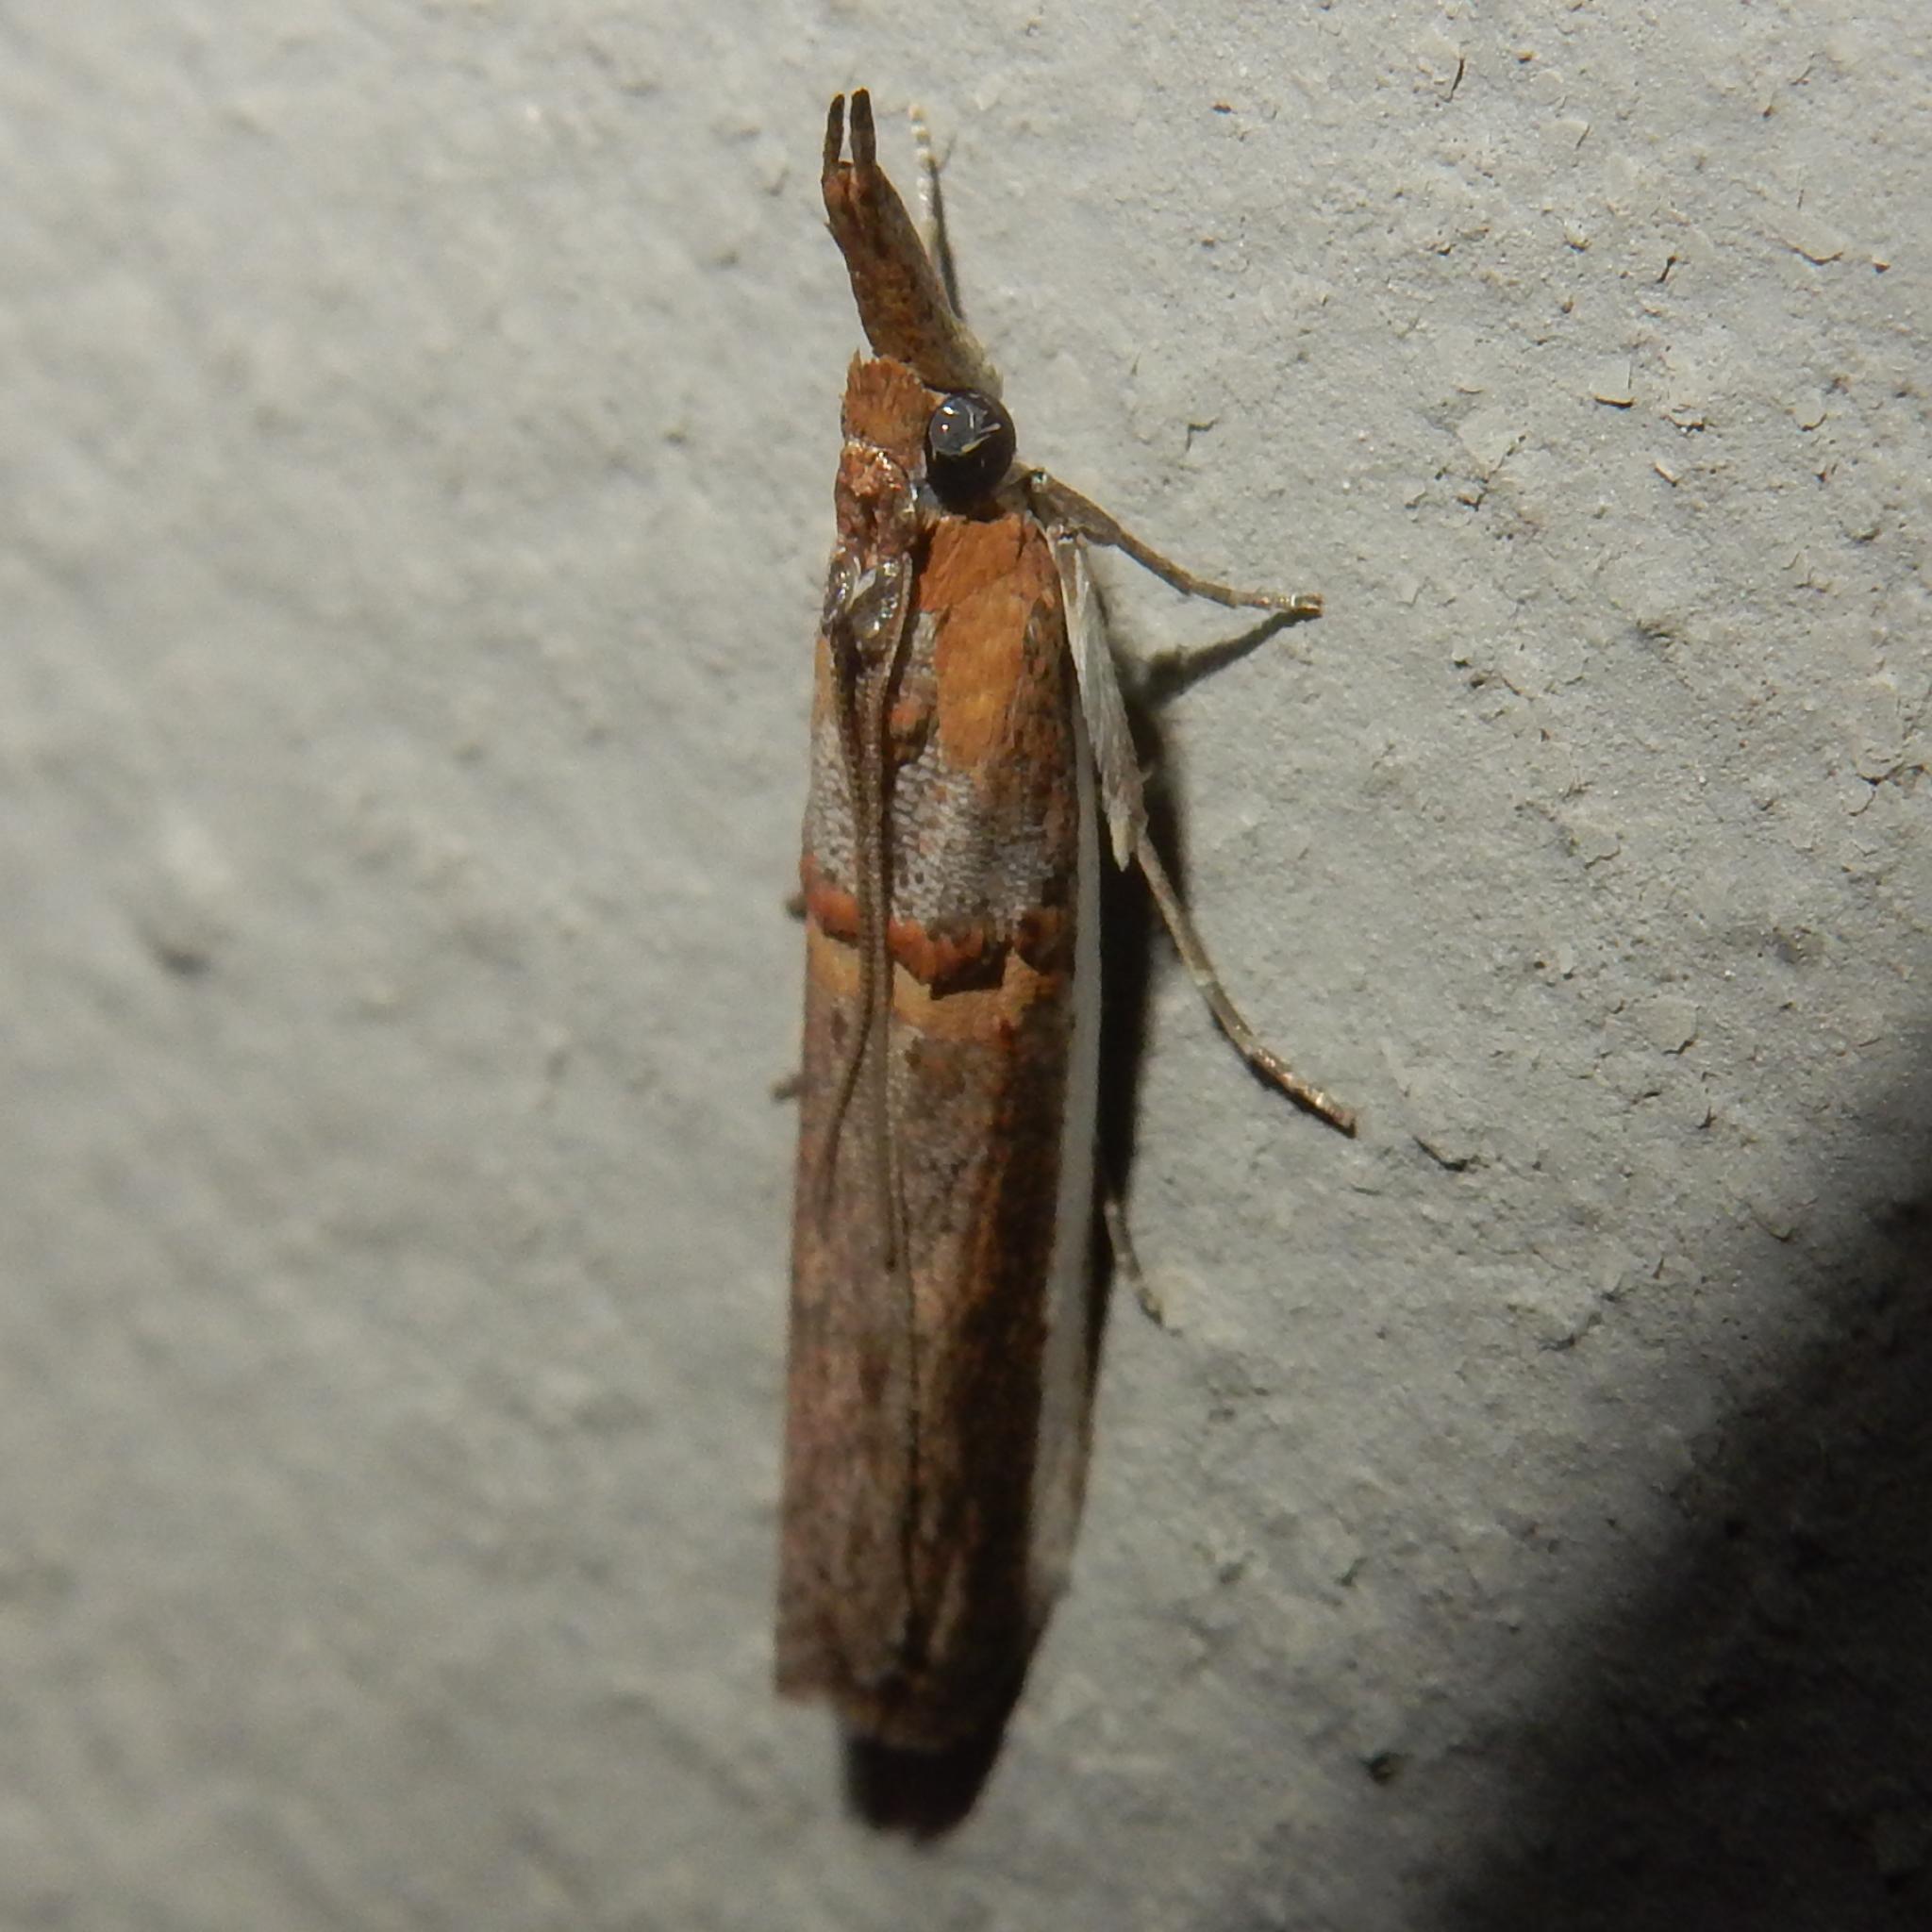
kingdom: Animalia
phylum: Arthropoda
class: Insecta
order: Lepidoptera
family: Pyralidae
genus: Etiella
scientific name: Etiella zinckenella
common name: Gold-banded etiella moth
